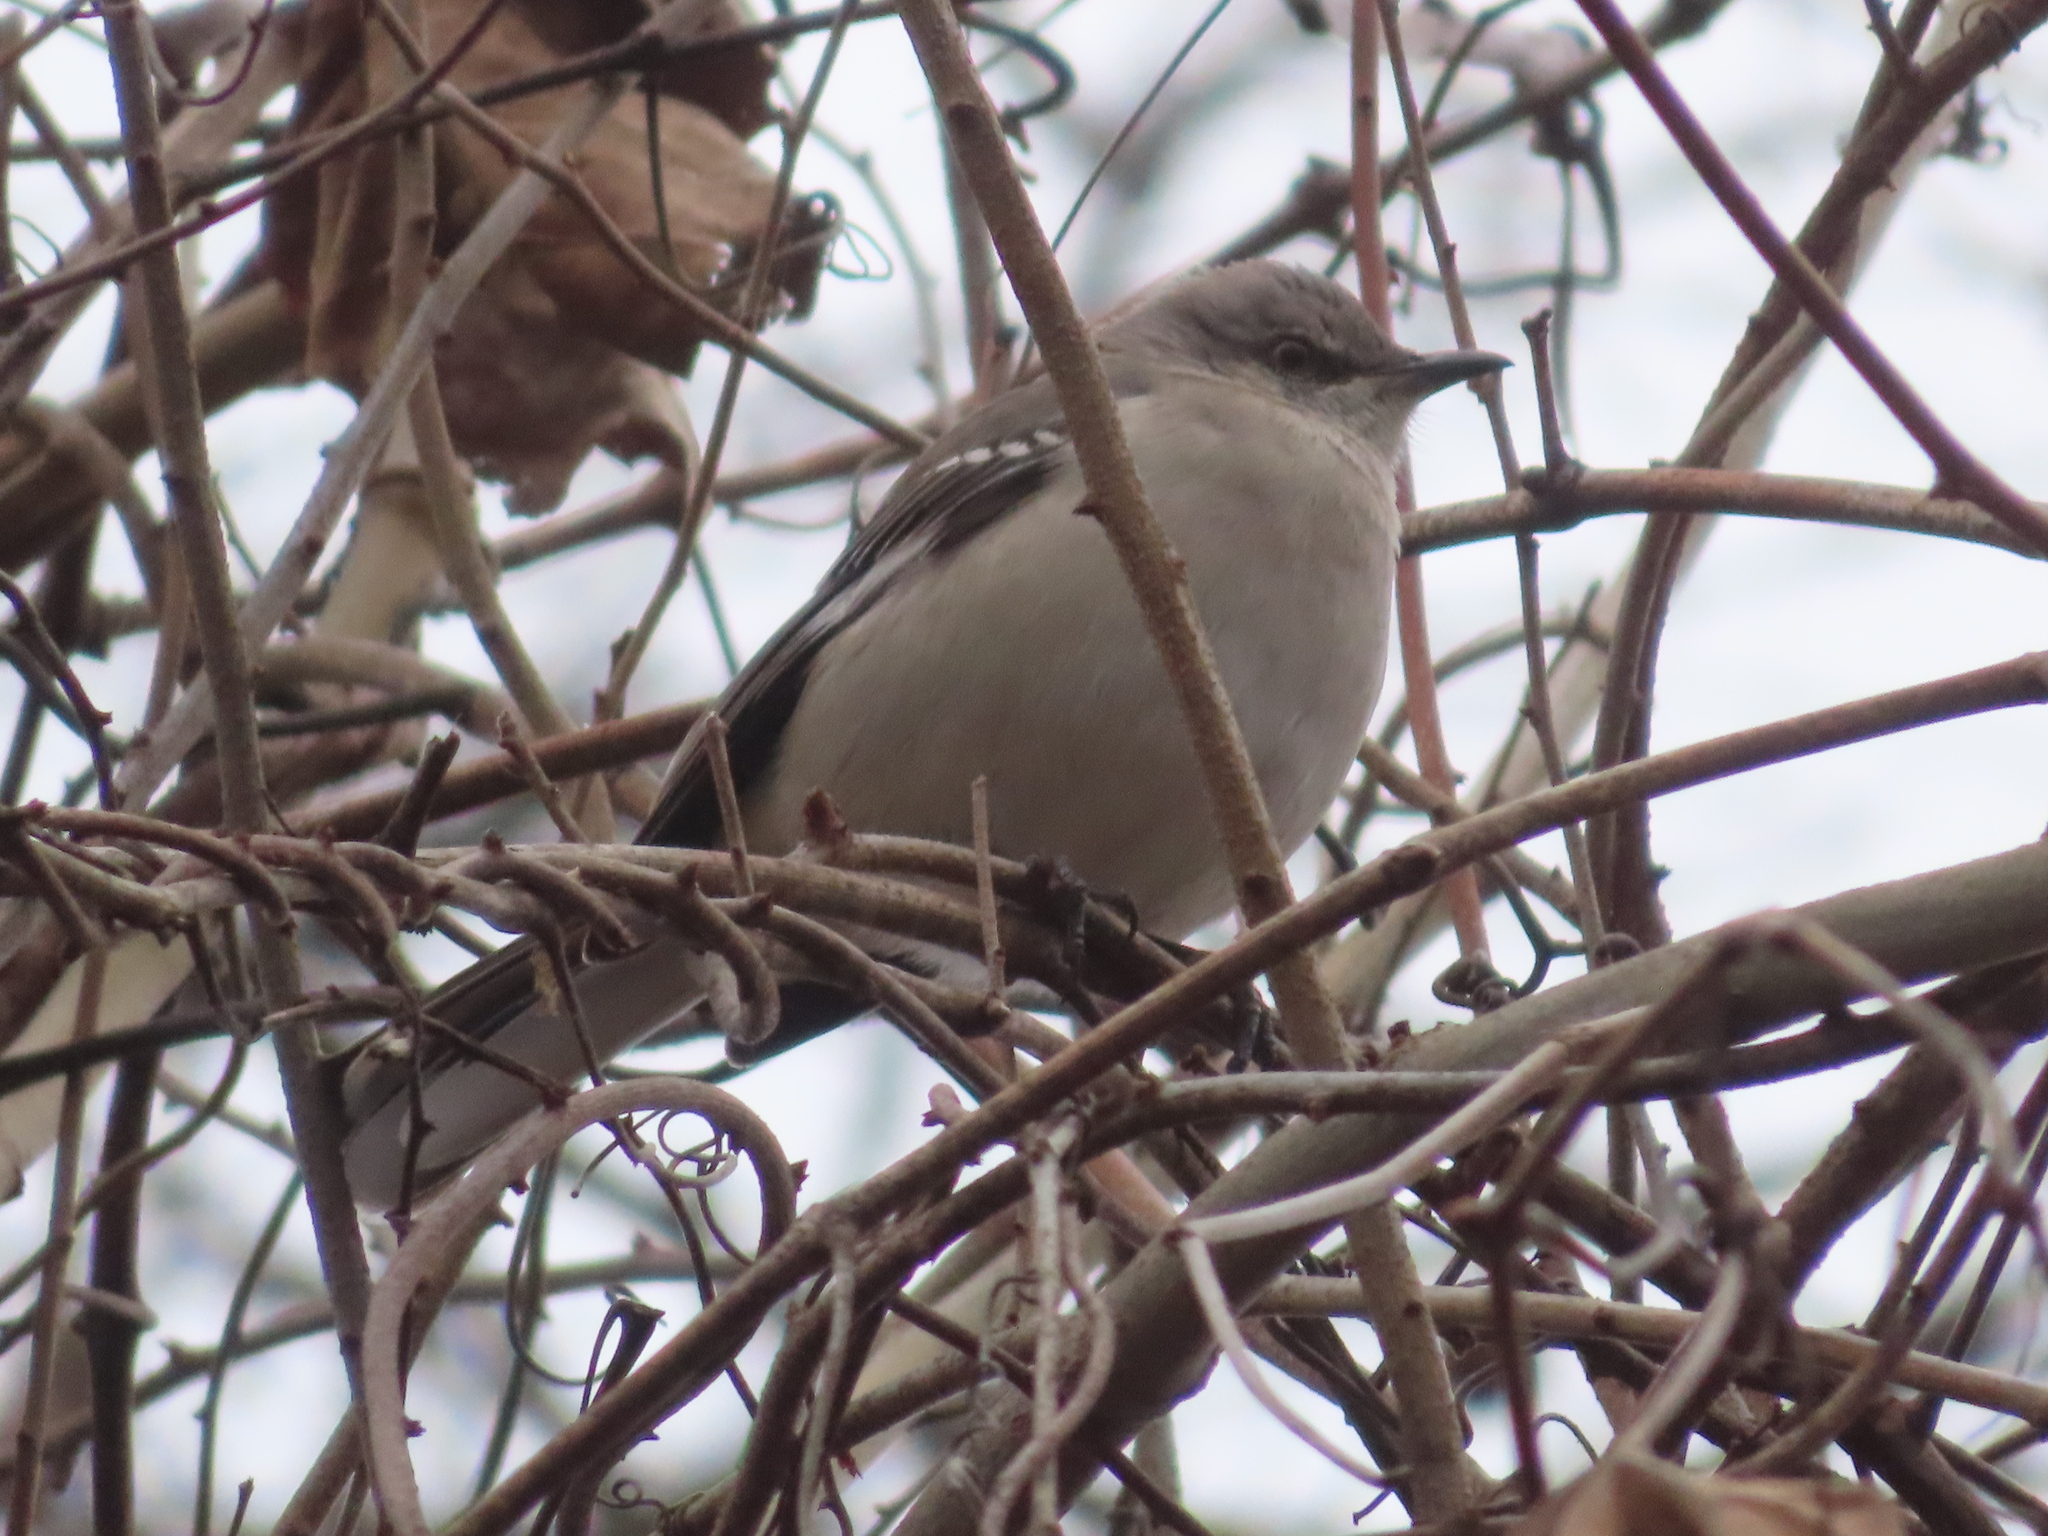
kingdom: Animalia
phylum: Chordata
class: Aves
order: Passeriformes
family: Mimidae
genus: Mimus
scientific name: Mimus polyglottos
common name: Northern mockingbird
